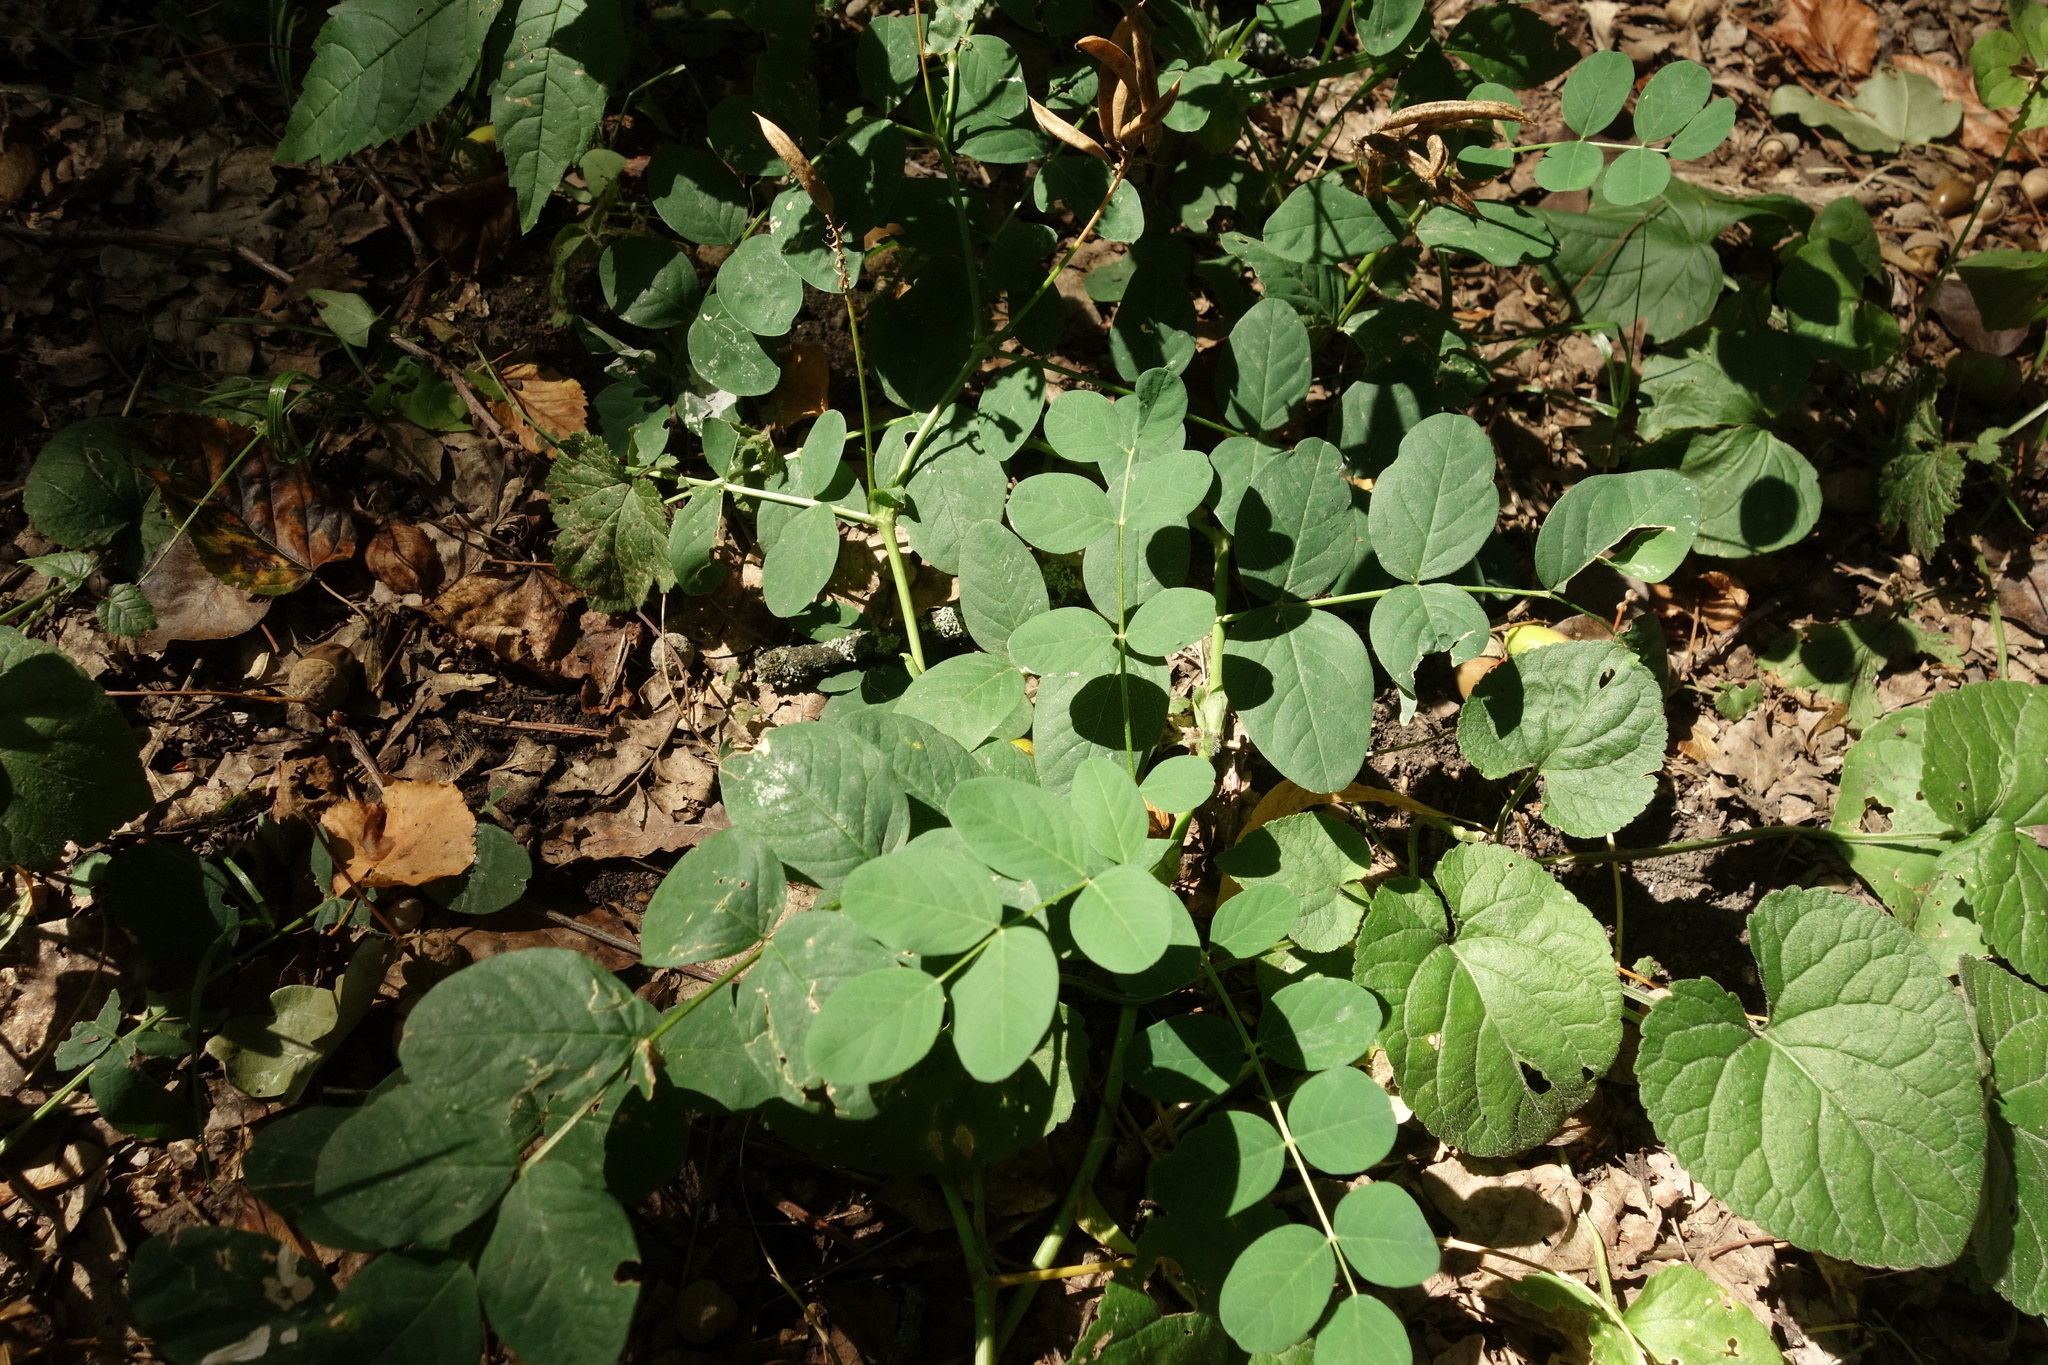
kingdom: Plantae
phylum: Tracheophyta
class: Magnoliopsida
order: Fabales
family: Fabaceae
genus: Astragalus
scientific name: Astragalus glycyphyllos
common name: Wild liquorice
